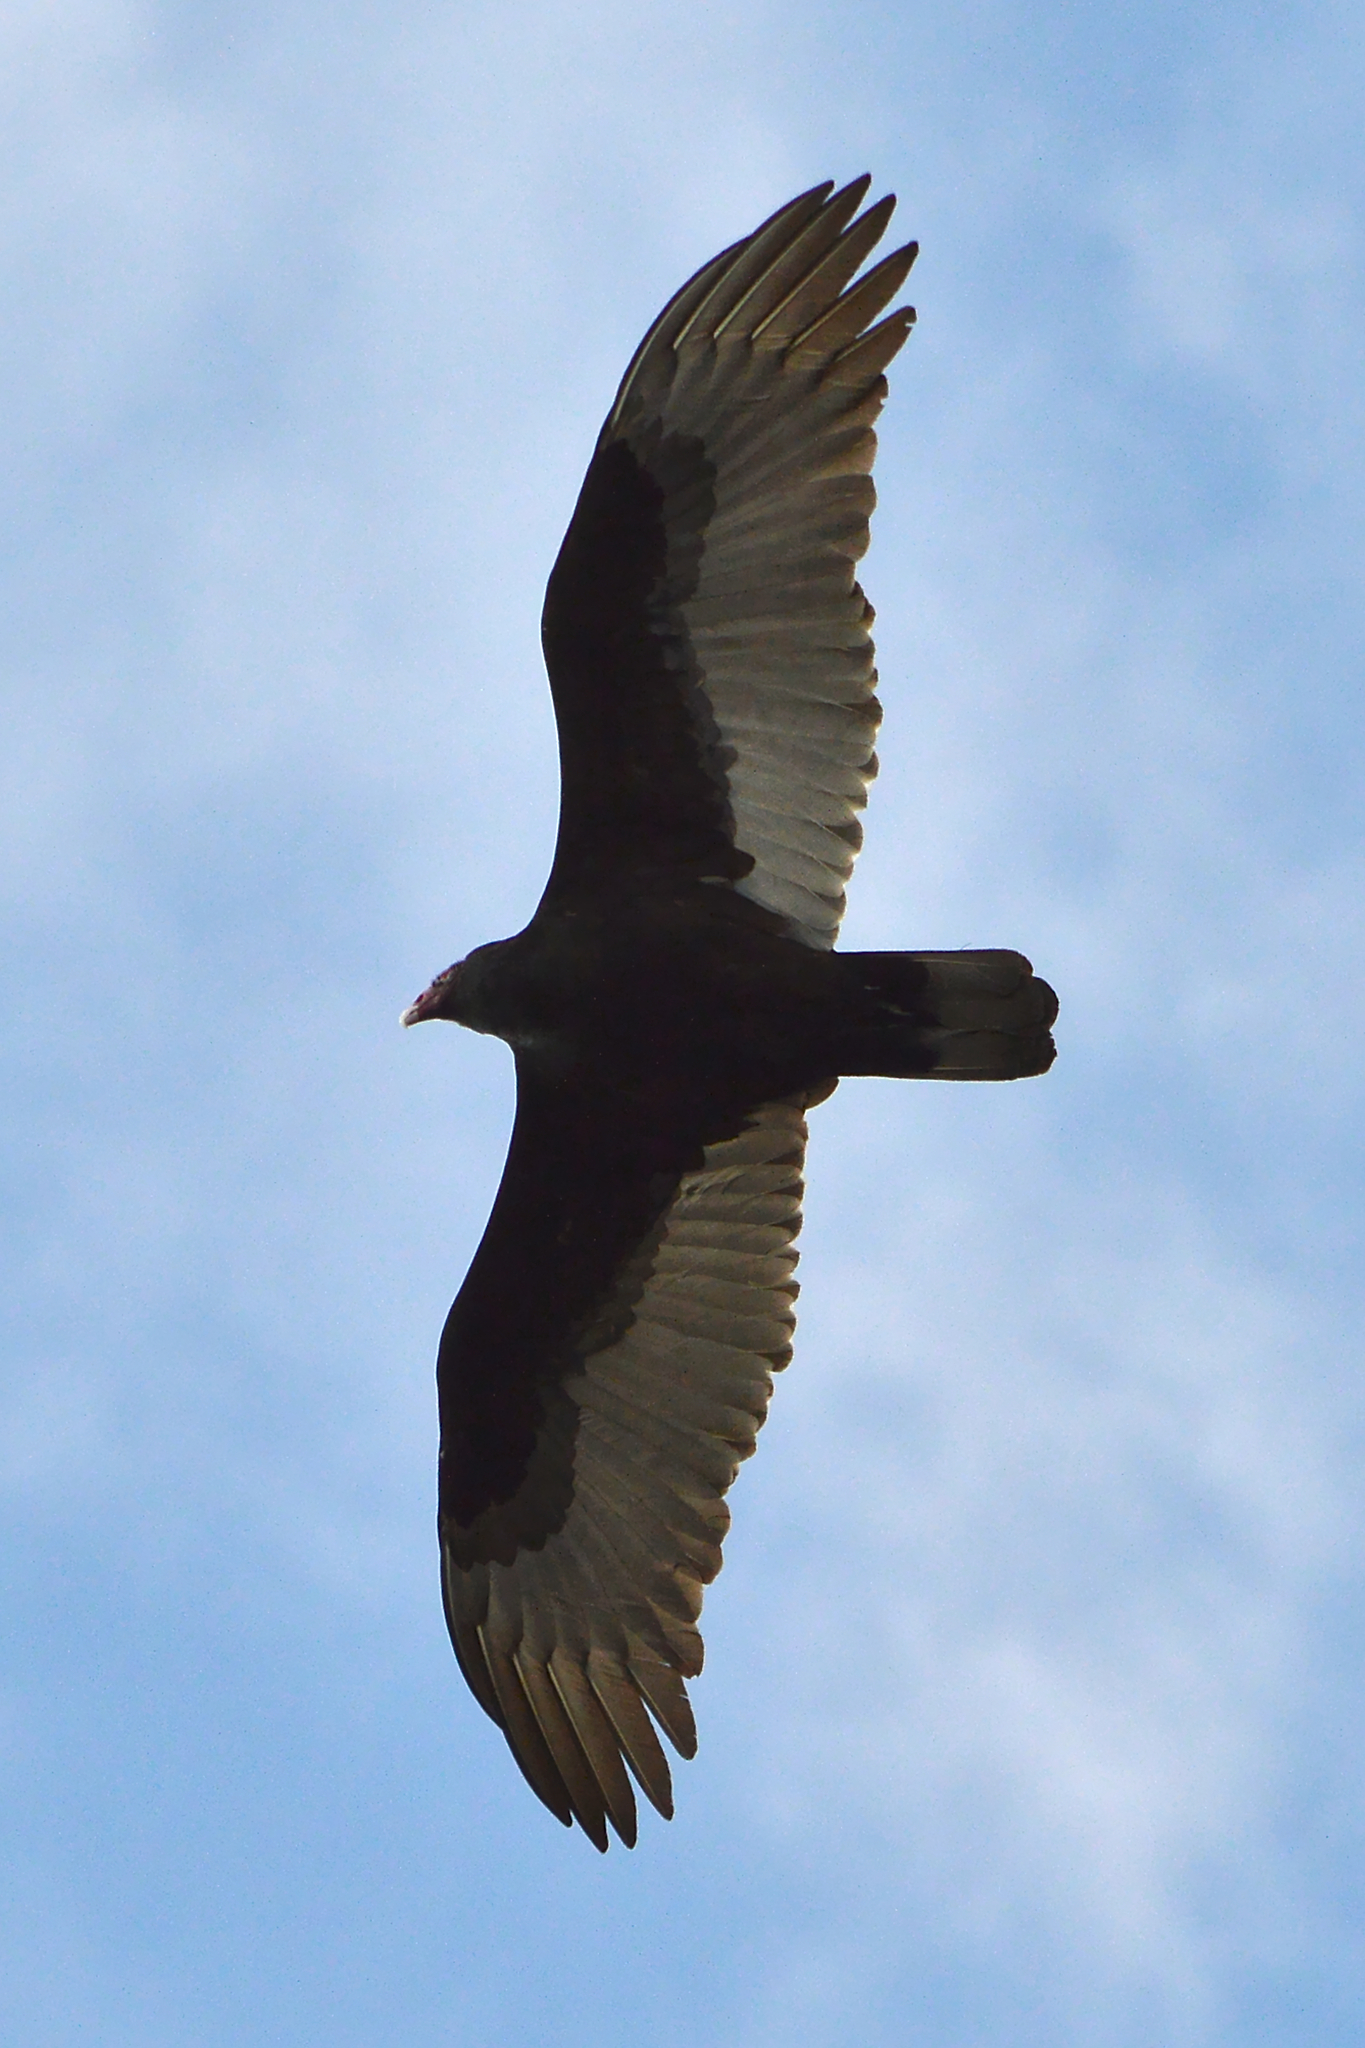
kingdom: Animalia
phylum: Chordata
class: Aves
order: Accipitriformes
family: Cathartidae
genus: Cathartes
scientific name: Cathartes aura
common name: Turkey vulture
